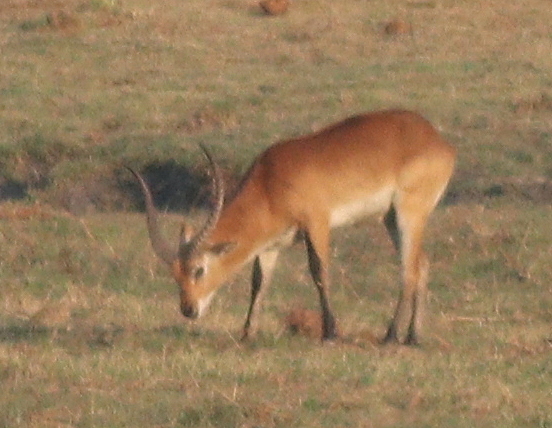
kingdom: Animalia
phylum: Chordata
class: Mammalia
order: Artiodactyla
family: Bovidae
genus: Kobus
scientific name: Kobus leche
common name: Lechwe
